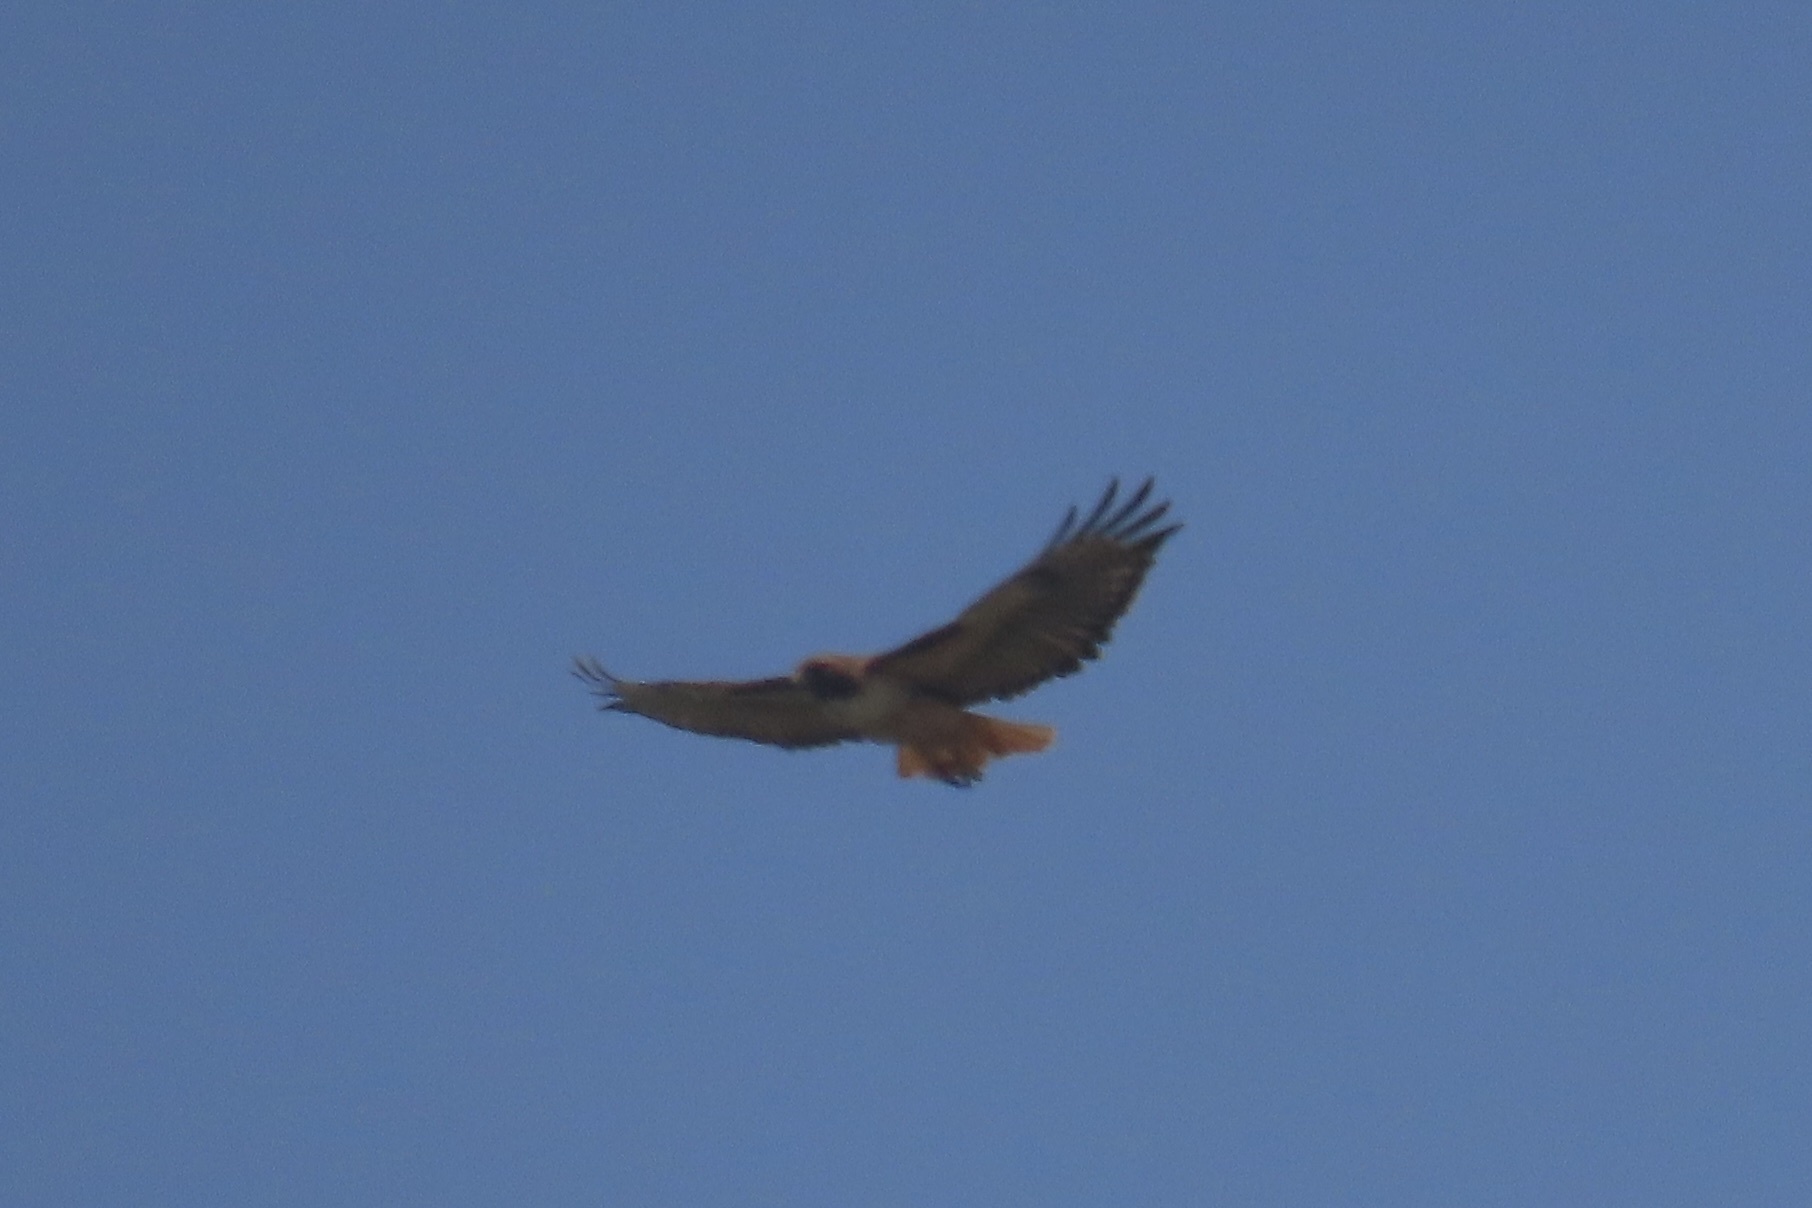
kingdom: Animalia
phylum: Chordata
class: Aves
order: Accipitriformes
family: Accipitridae
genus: Buteo
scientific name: Buteo jamaicensis
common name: Red-tailed hawk
